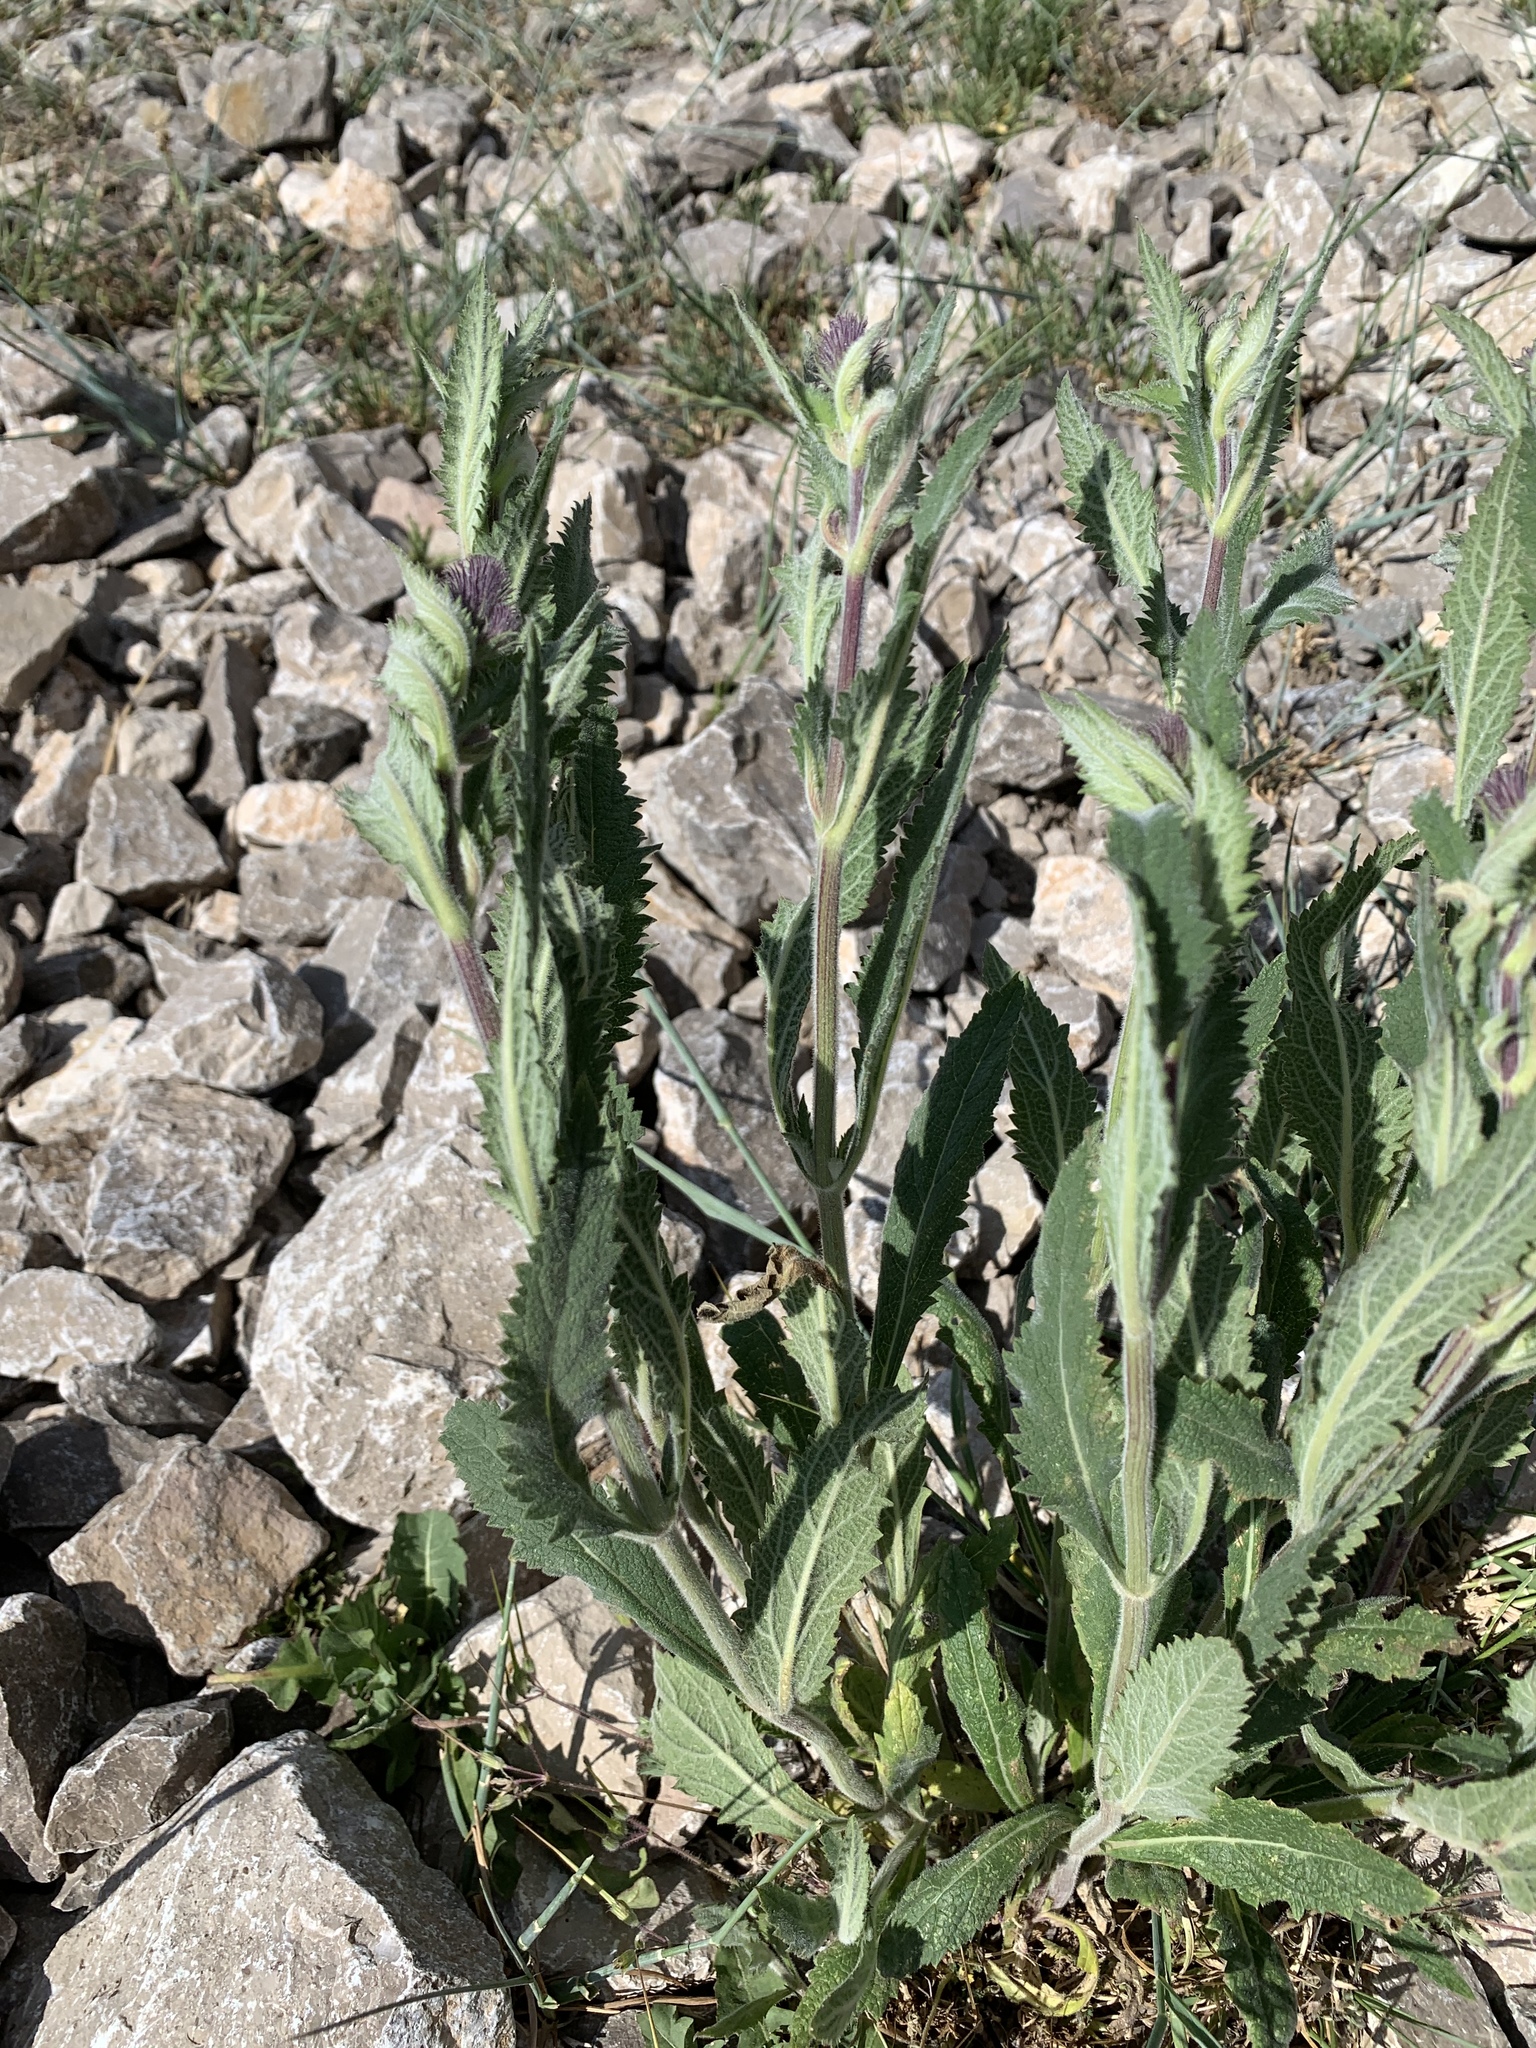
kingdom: Plantae
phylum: Tracheophyta
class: Magnoliopsida
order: Lamiales
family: Verbenaceae
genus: Verbena
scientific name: Verbena macdougalii
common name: New mexico vervain
